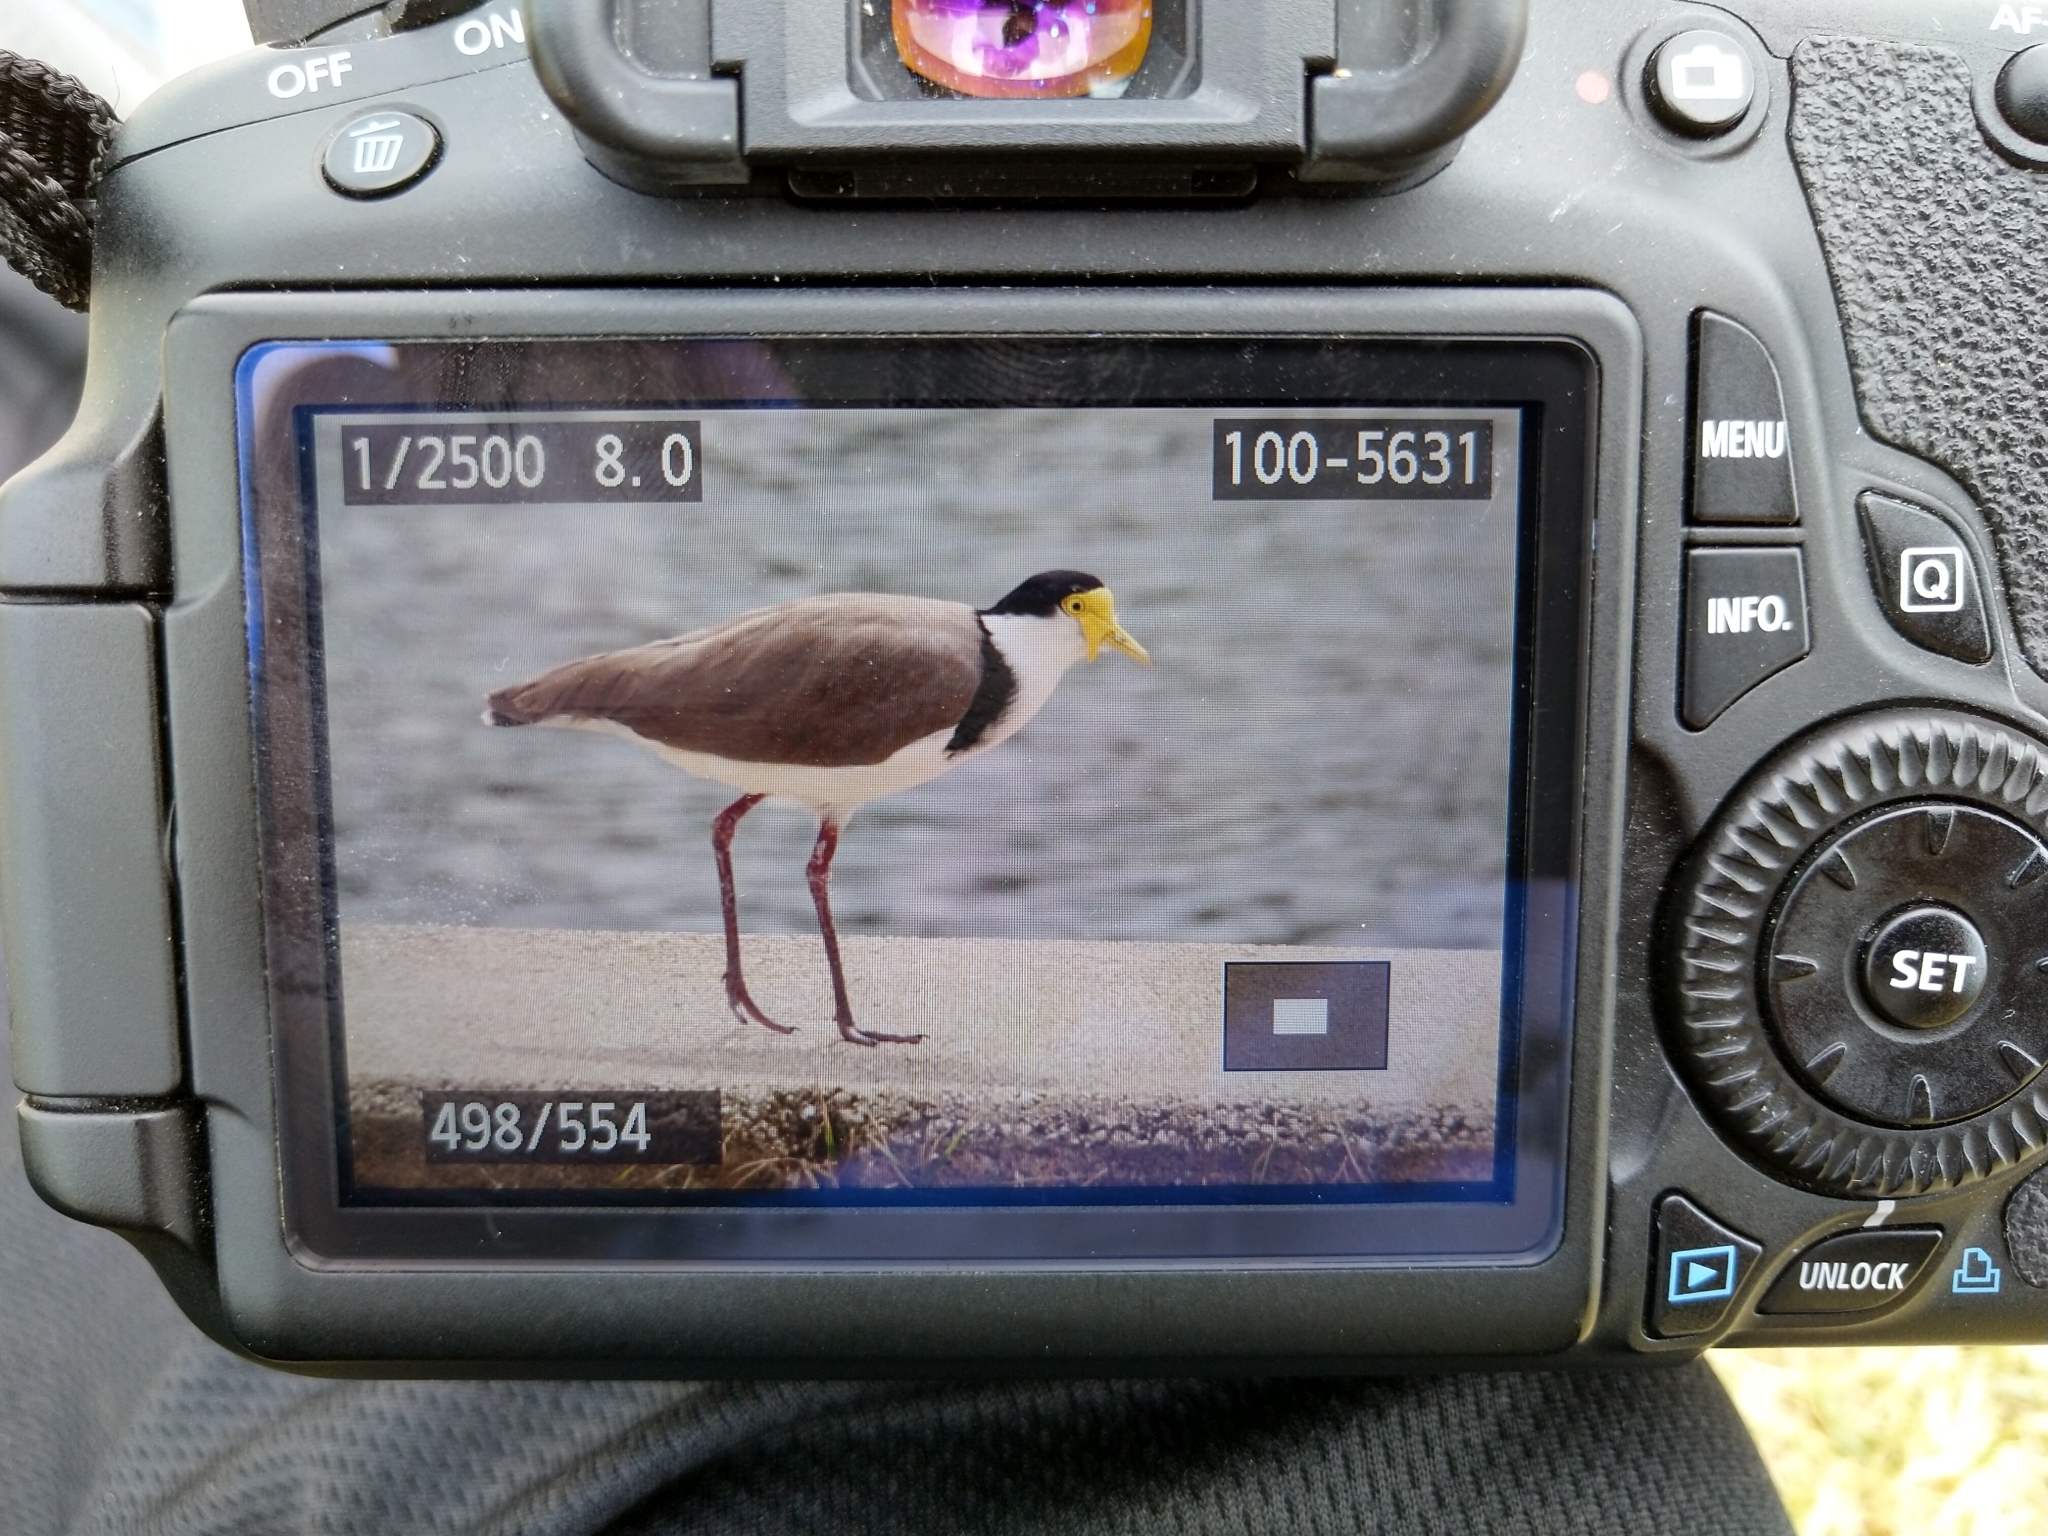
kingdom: Animalia
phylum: Chordata
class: Aves
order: Charadriiformes
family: Charadriidae
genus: Vanellus
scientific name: Vanellus miles
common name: Masked lapwing
